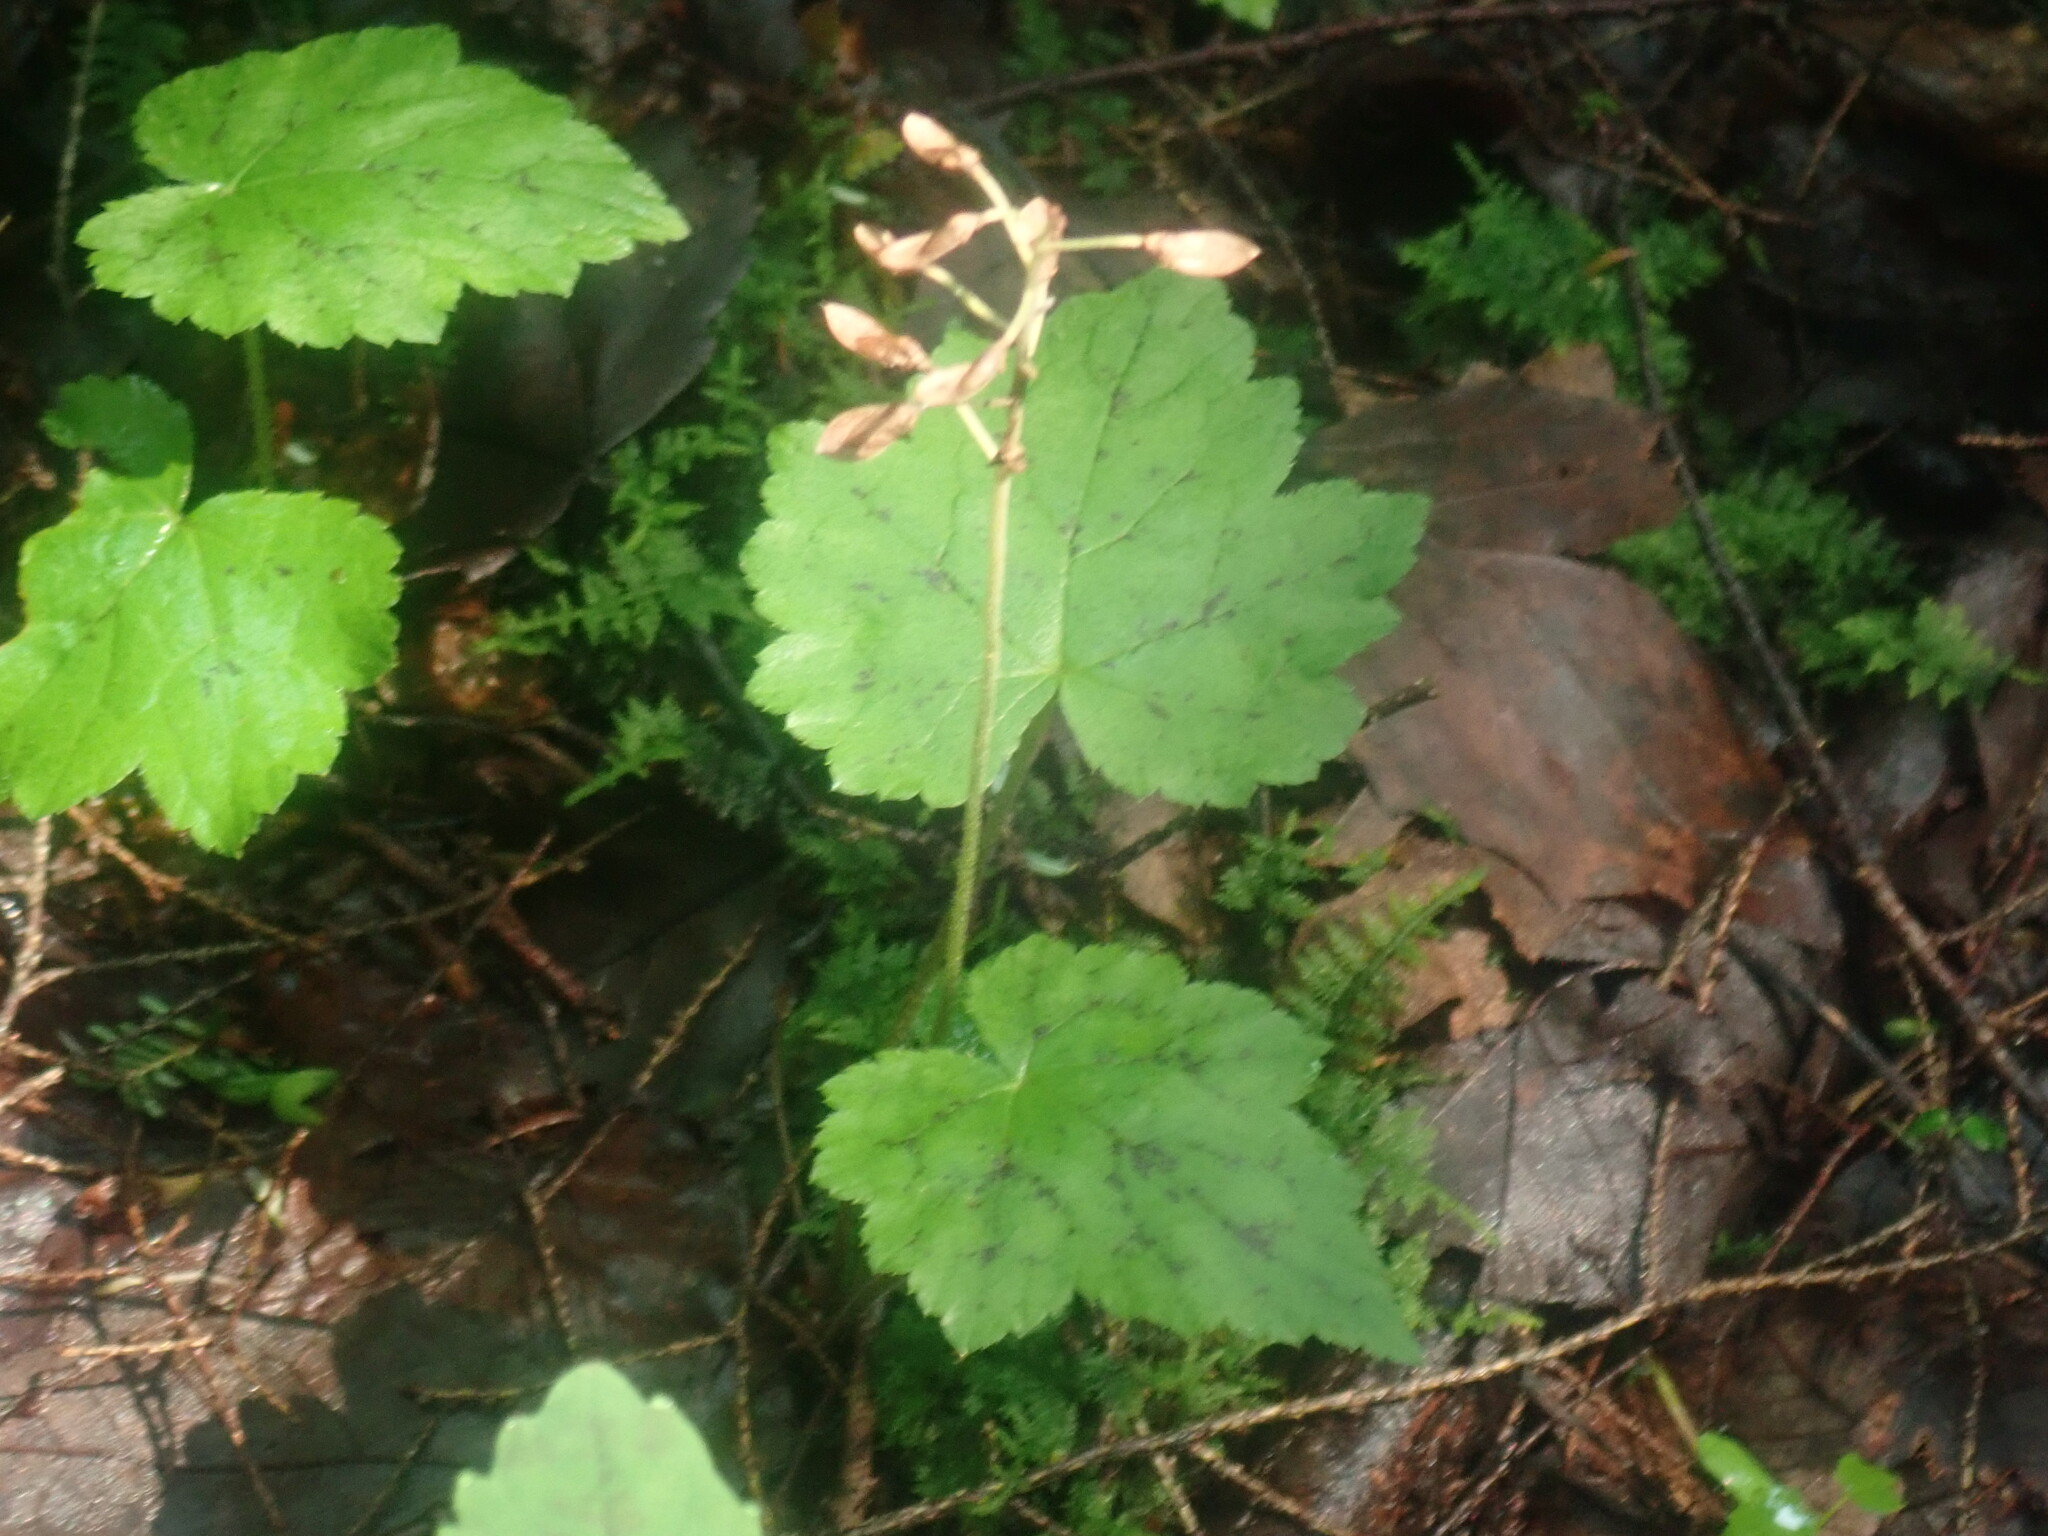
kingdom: Plantae
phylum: Tracheophyta
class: Magnoliopsida
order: Saxifragales
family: Saxifragaceae
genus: Tiarella
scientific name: Tiarella stolonifera
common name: Stoloniferous foamflower
